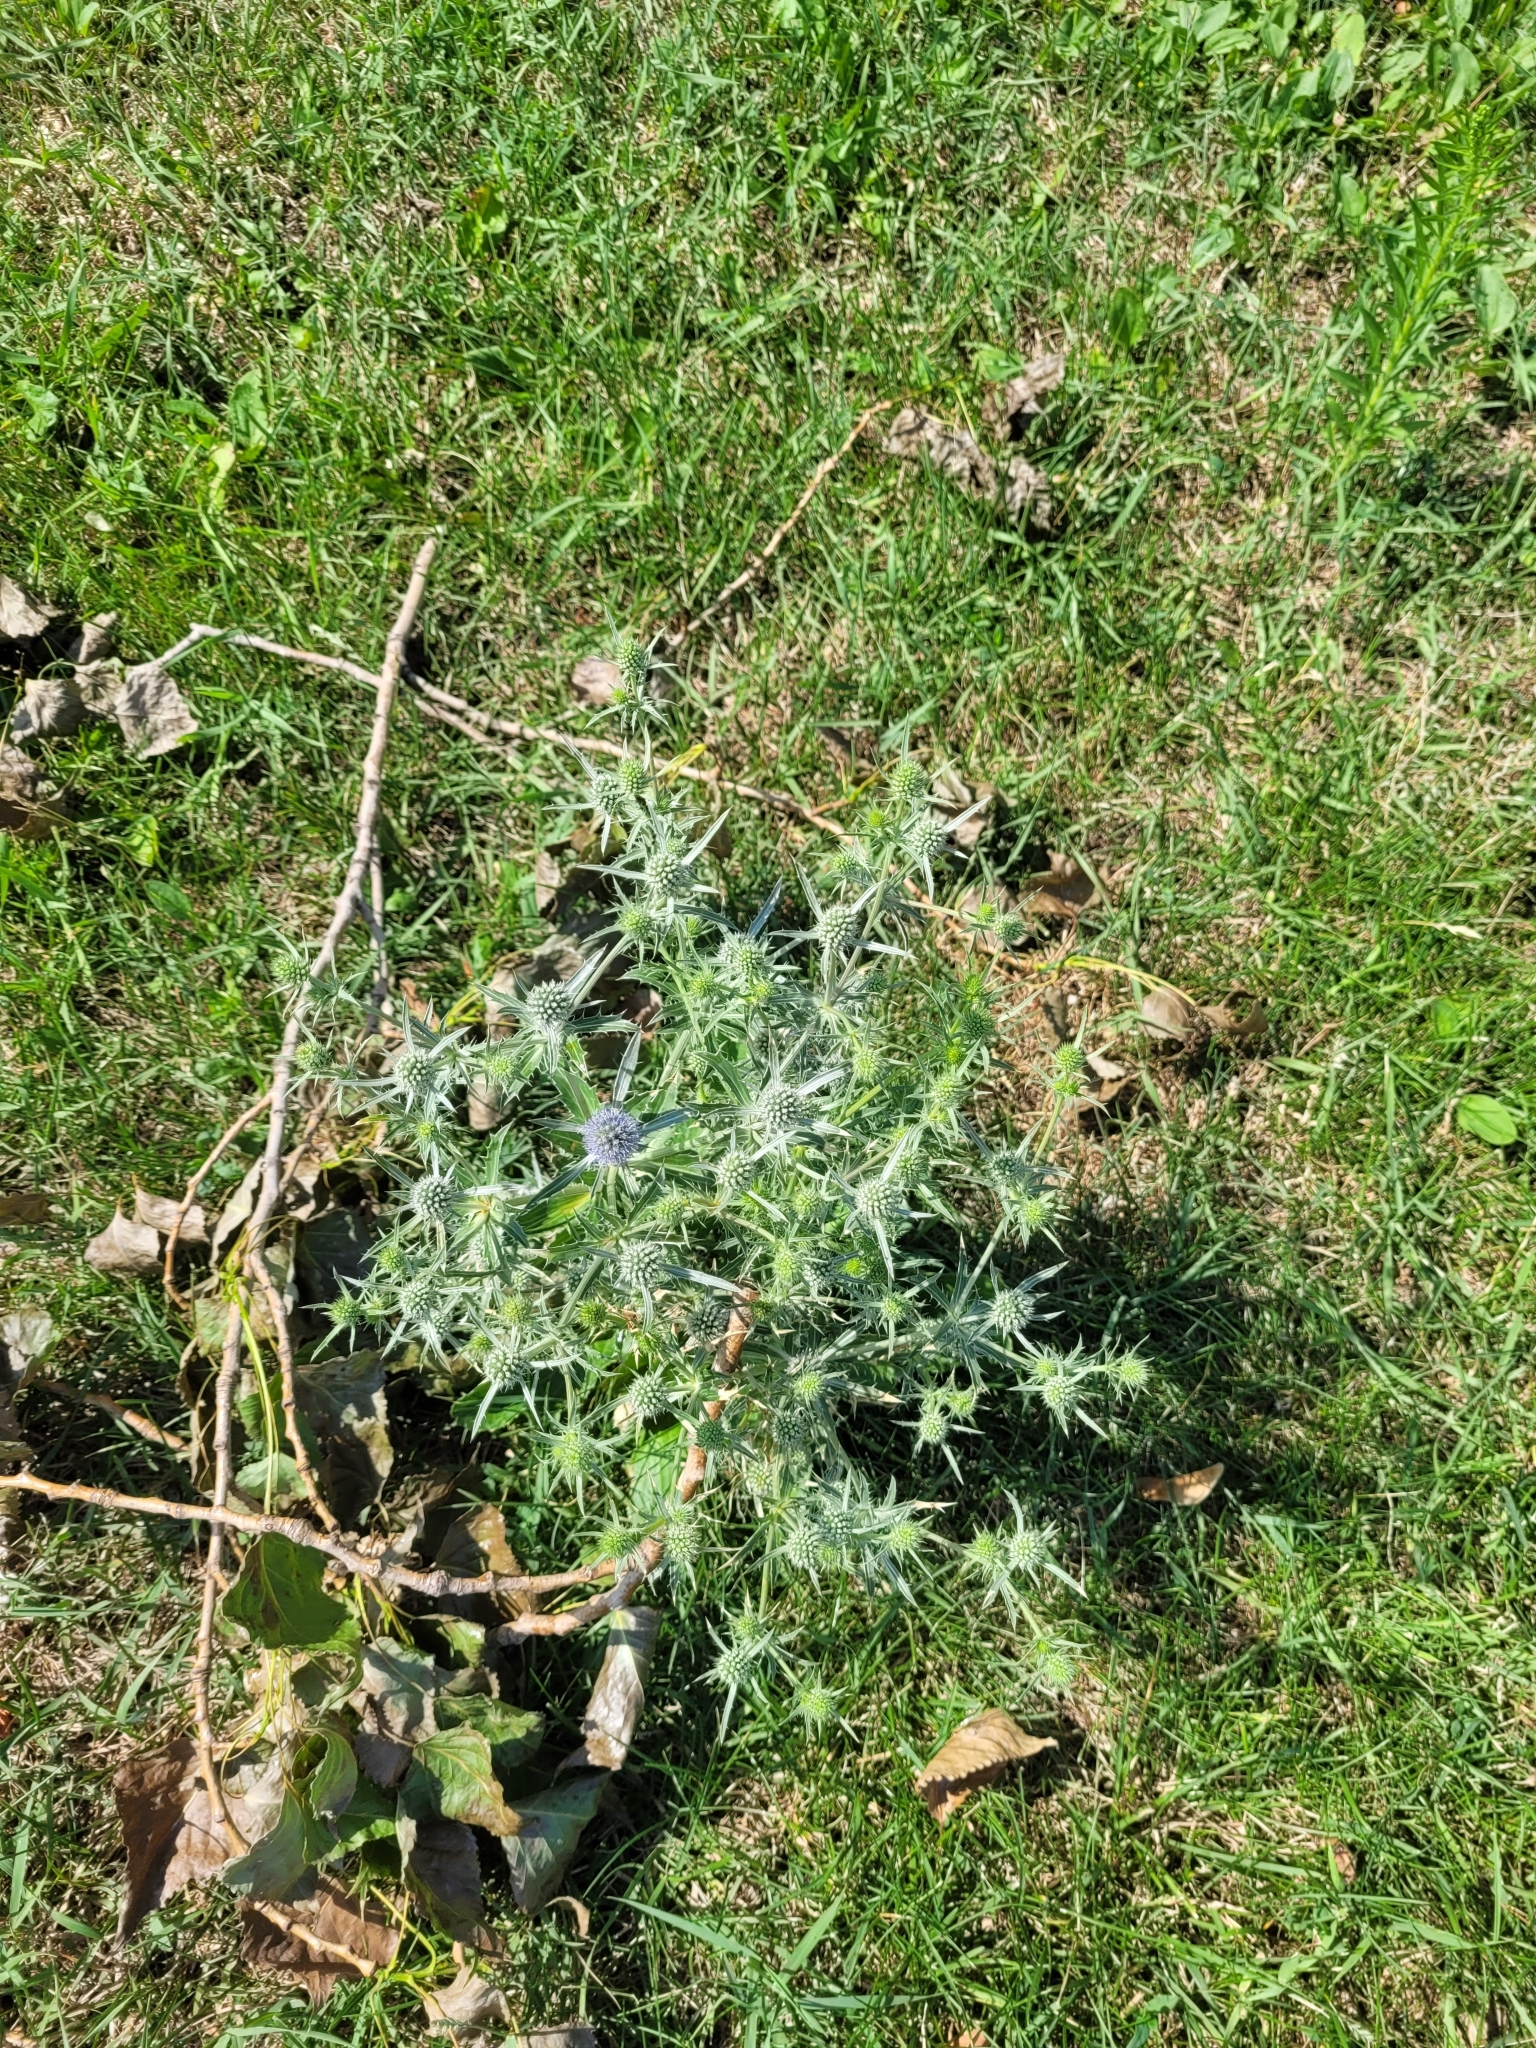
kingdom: Plantae
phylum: Tracheophyta
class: Magnoliopsida
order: Apiales
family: Apiaceae
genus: Eryngium
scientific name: Eryngium planum
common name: Blue eryngo
